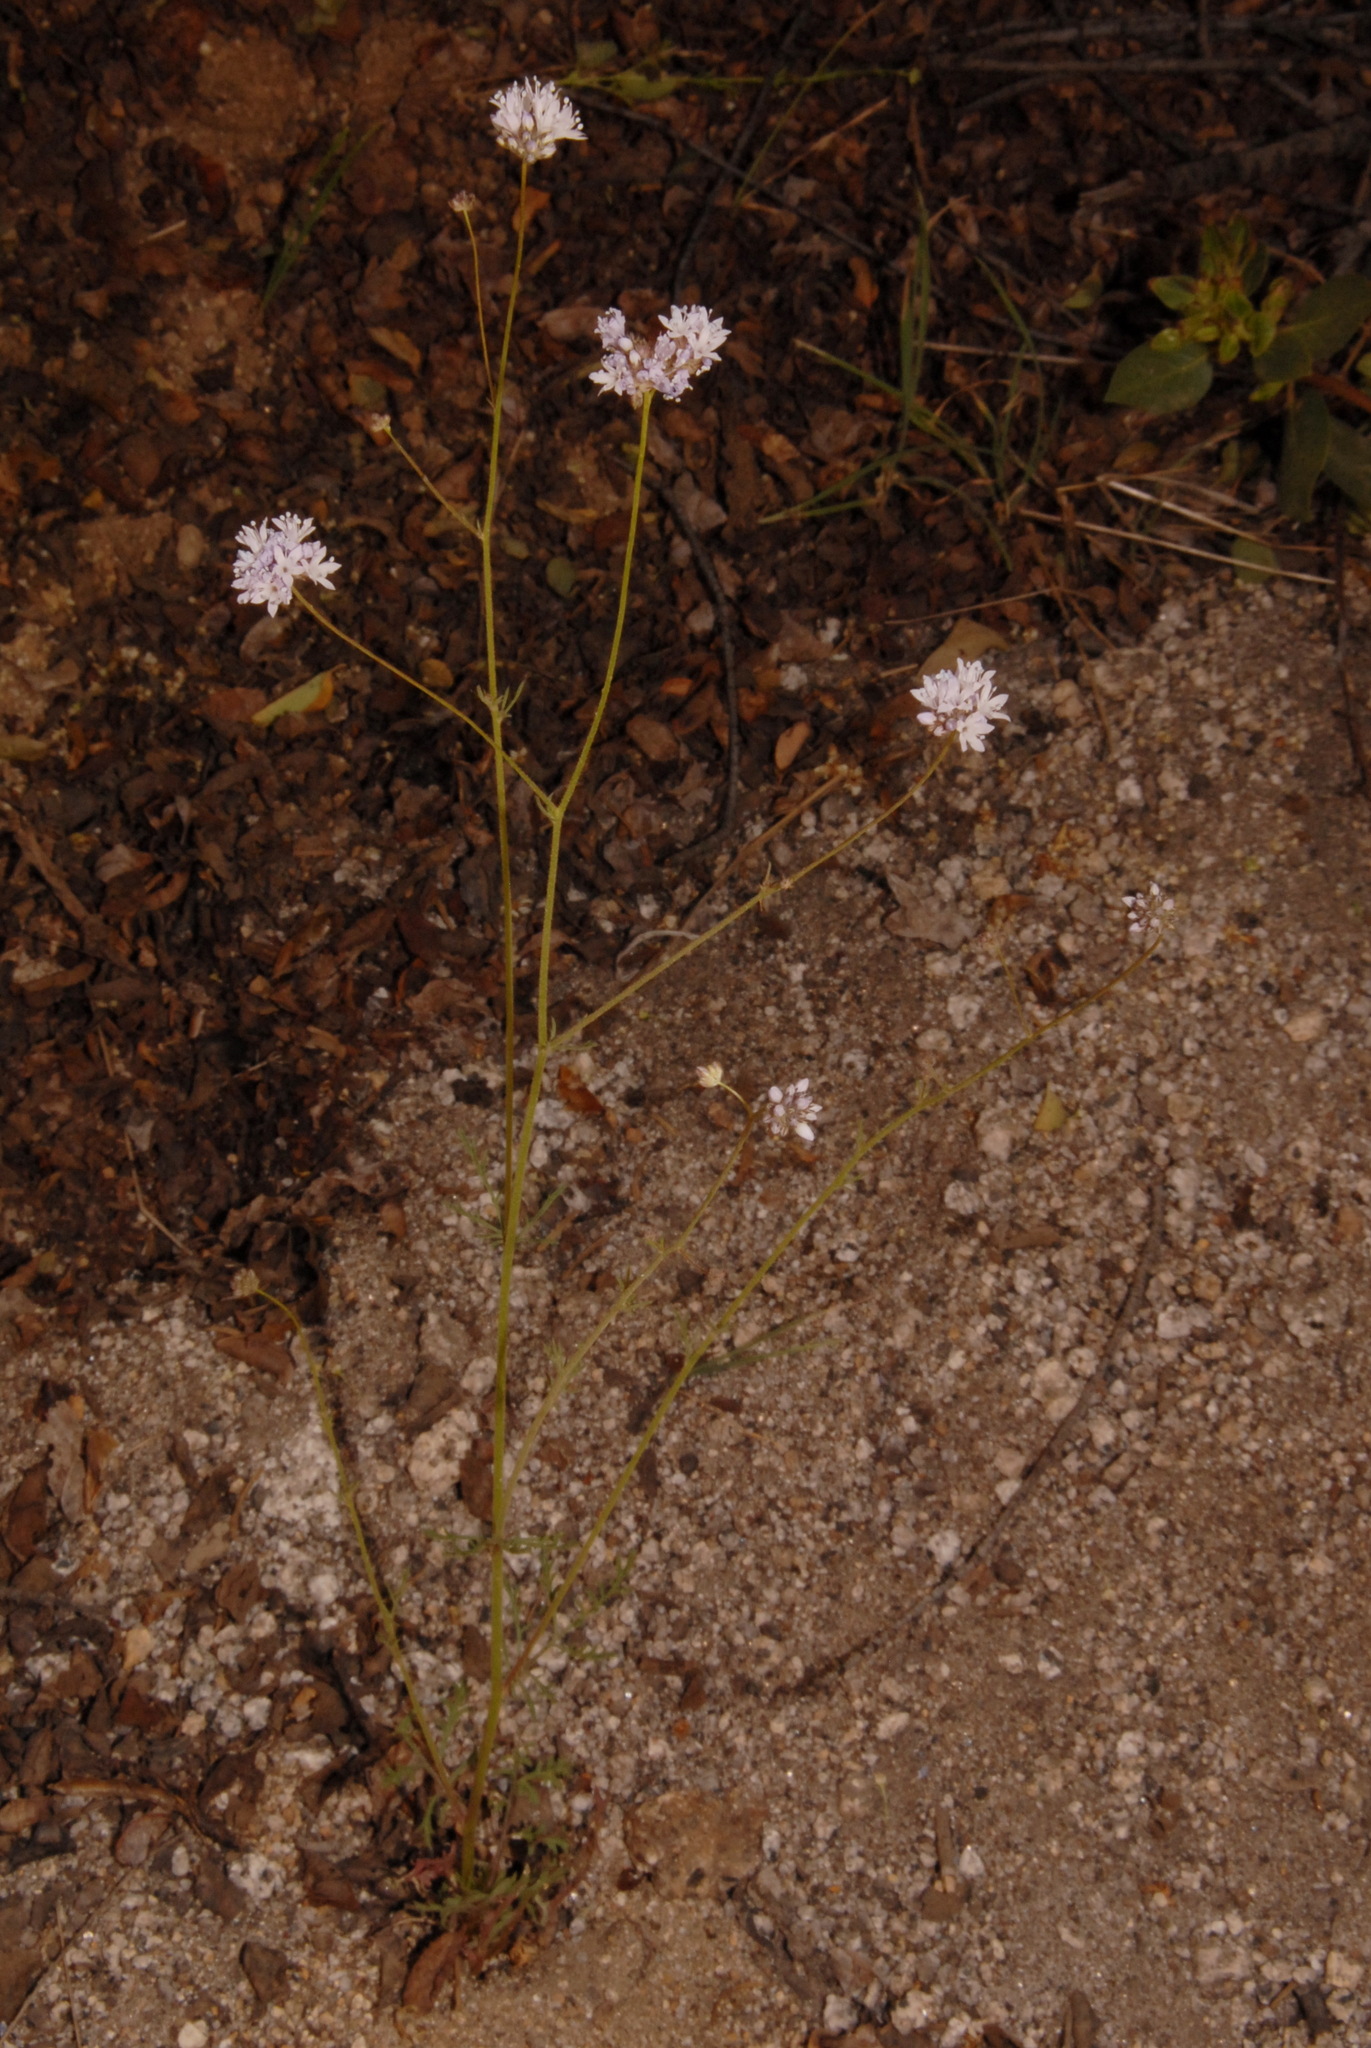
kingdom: Plantae
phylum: Tracheophyta
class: Magnoliopsida
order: Ericales
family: Polemoniaceae
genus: Gilia
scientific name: Gilia capitata
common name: Bluehead gilia
